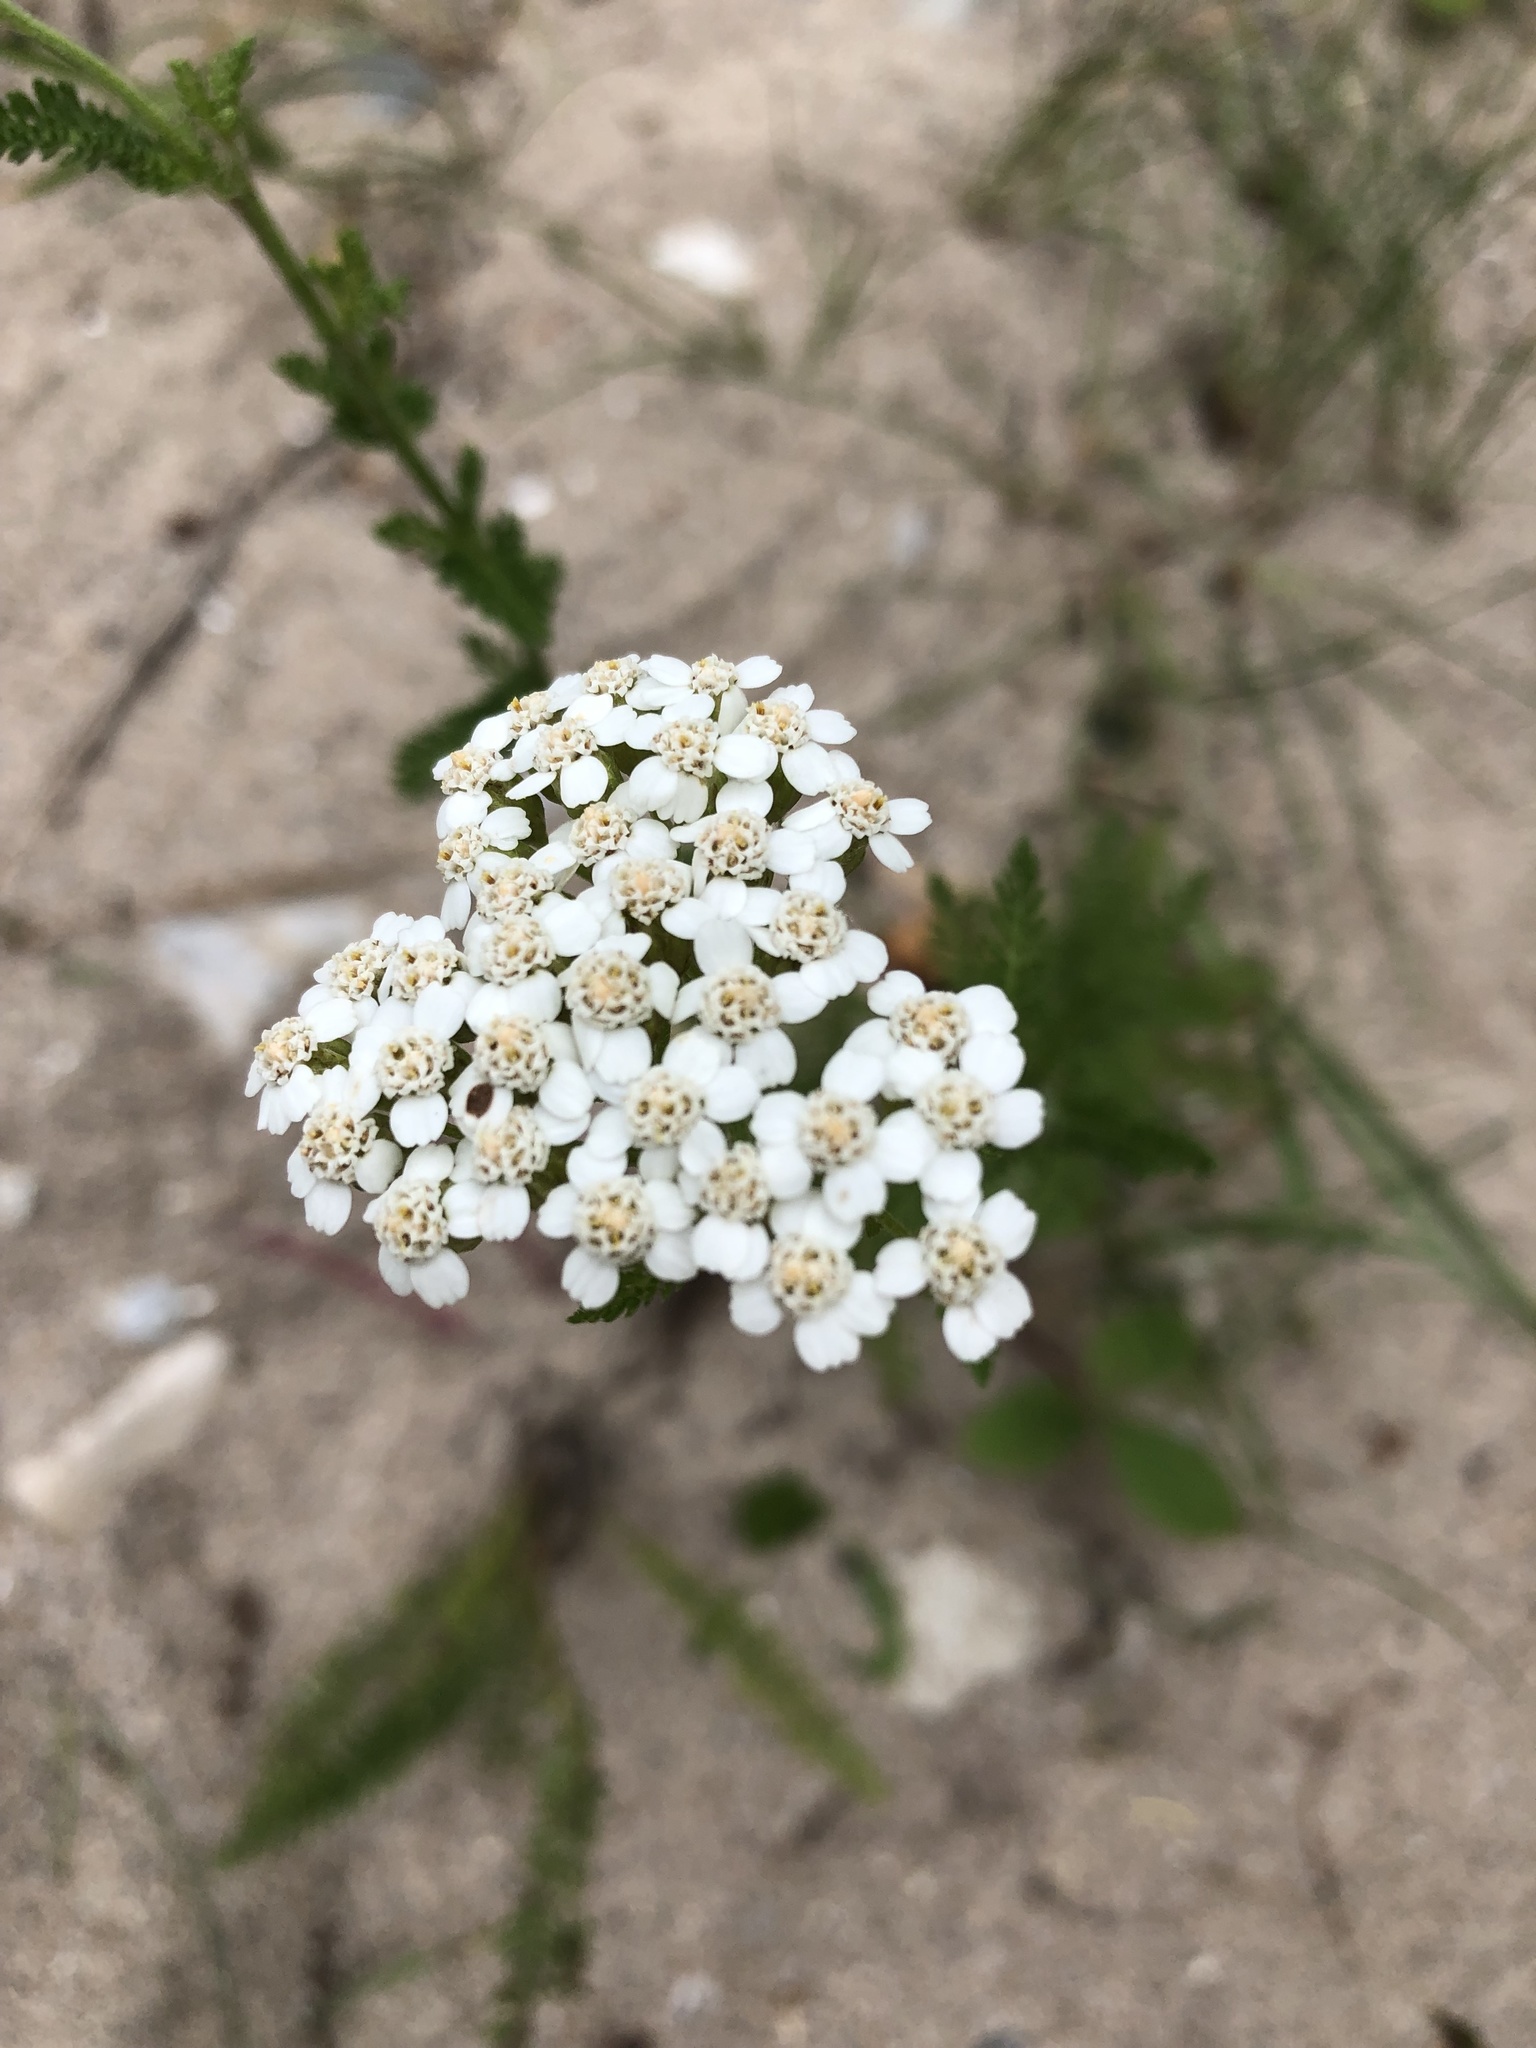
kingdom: Plantae
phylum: Tracheophyta
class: Magnoliopsida
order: Asterales
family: Asteraceae
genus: Achillea
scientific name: Achillea millefolium
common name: Yarrow
